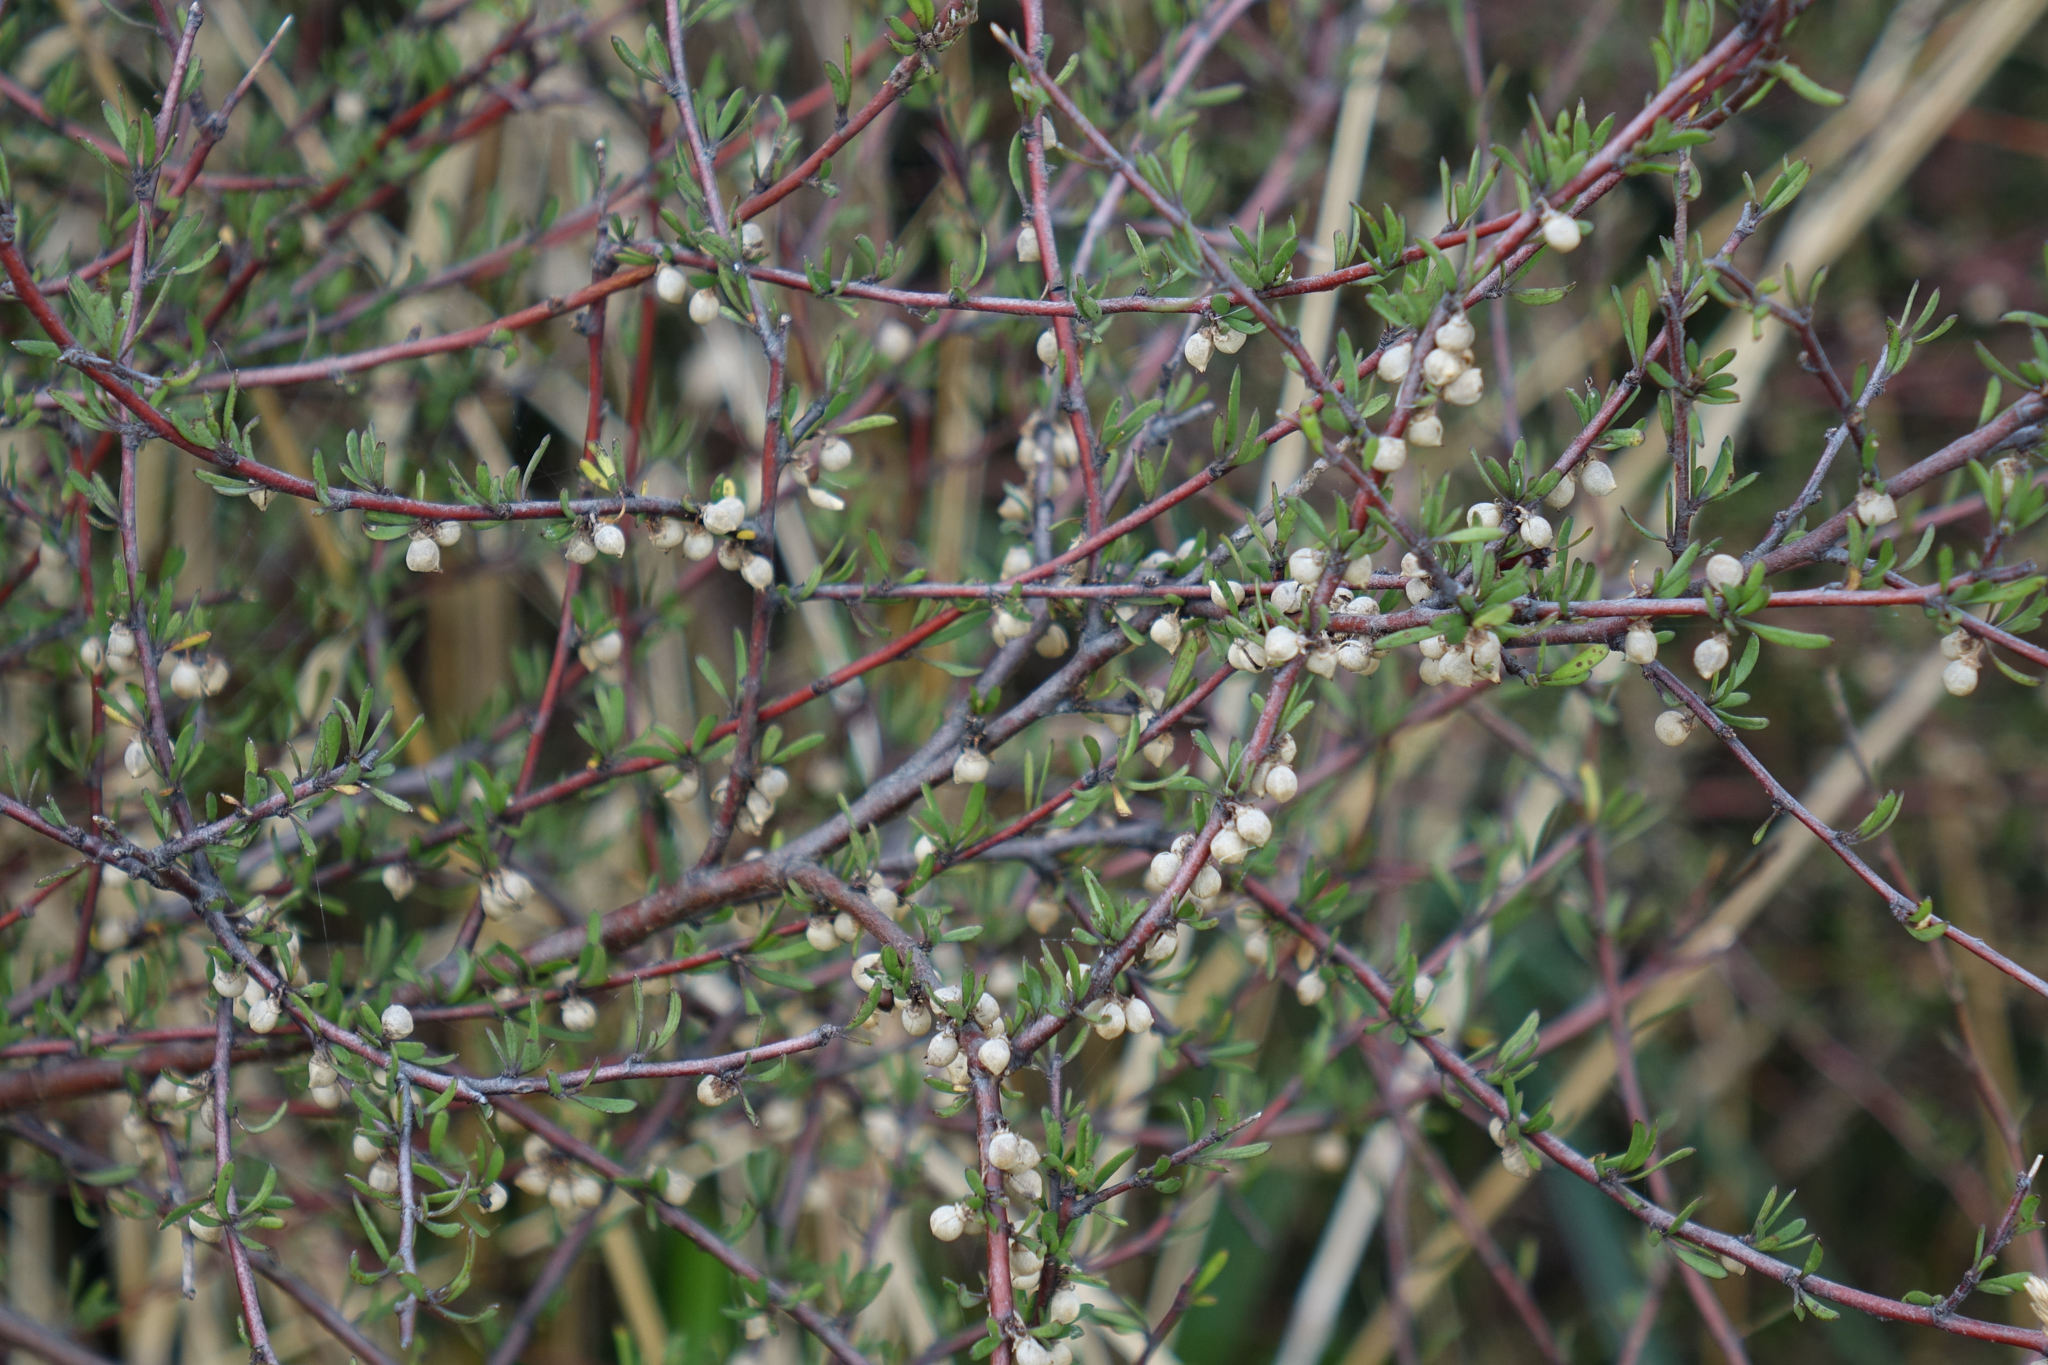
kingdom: Plantae
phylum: Tracheophyta
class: Magnoliopsida
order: Malvales
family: Malvaceae
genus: Plagianthus
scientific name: Plagianthus divaricatus
